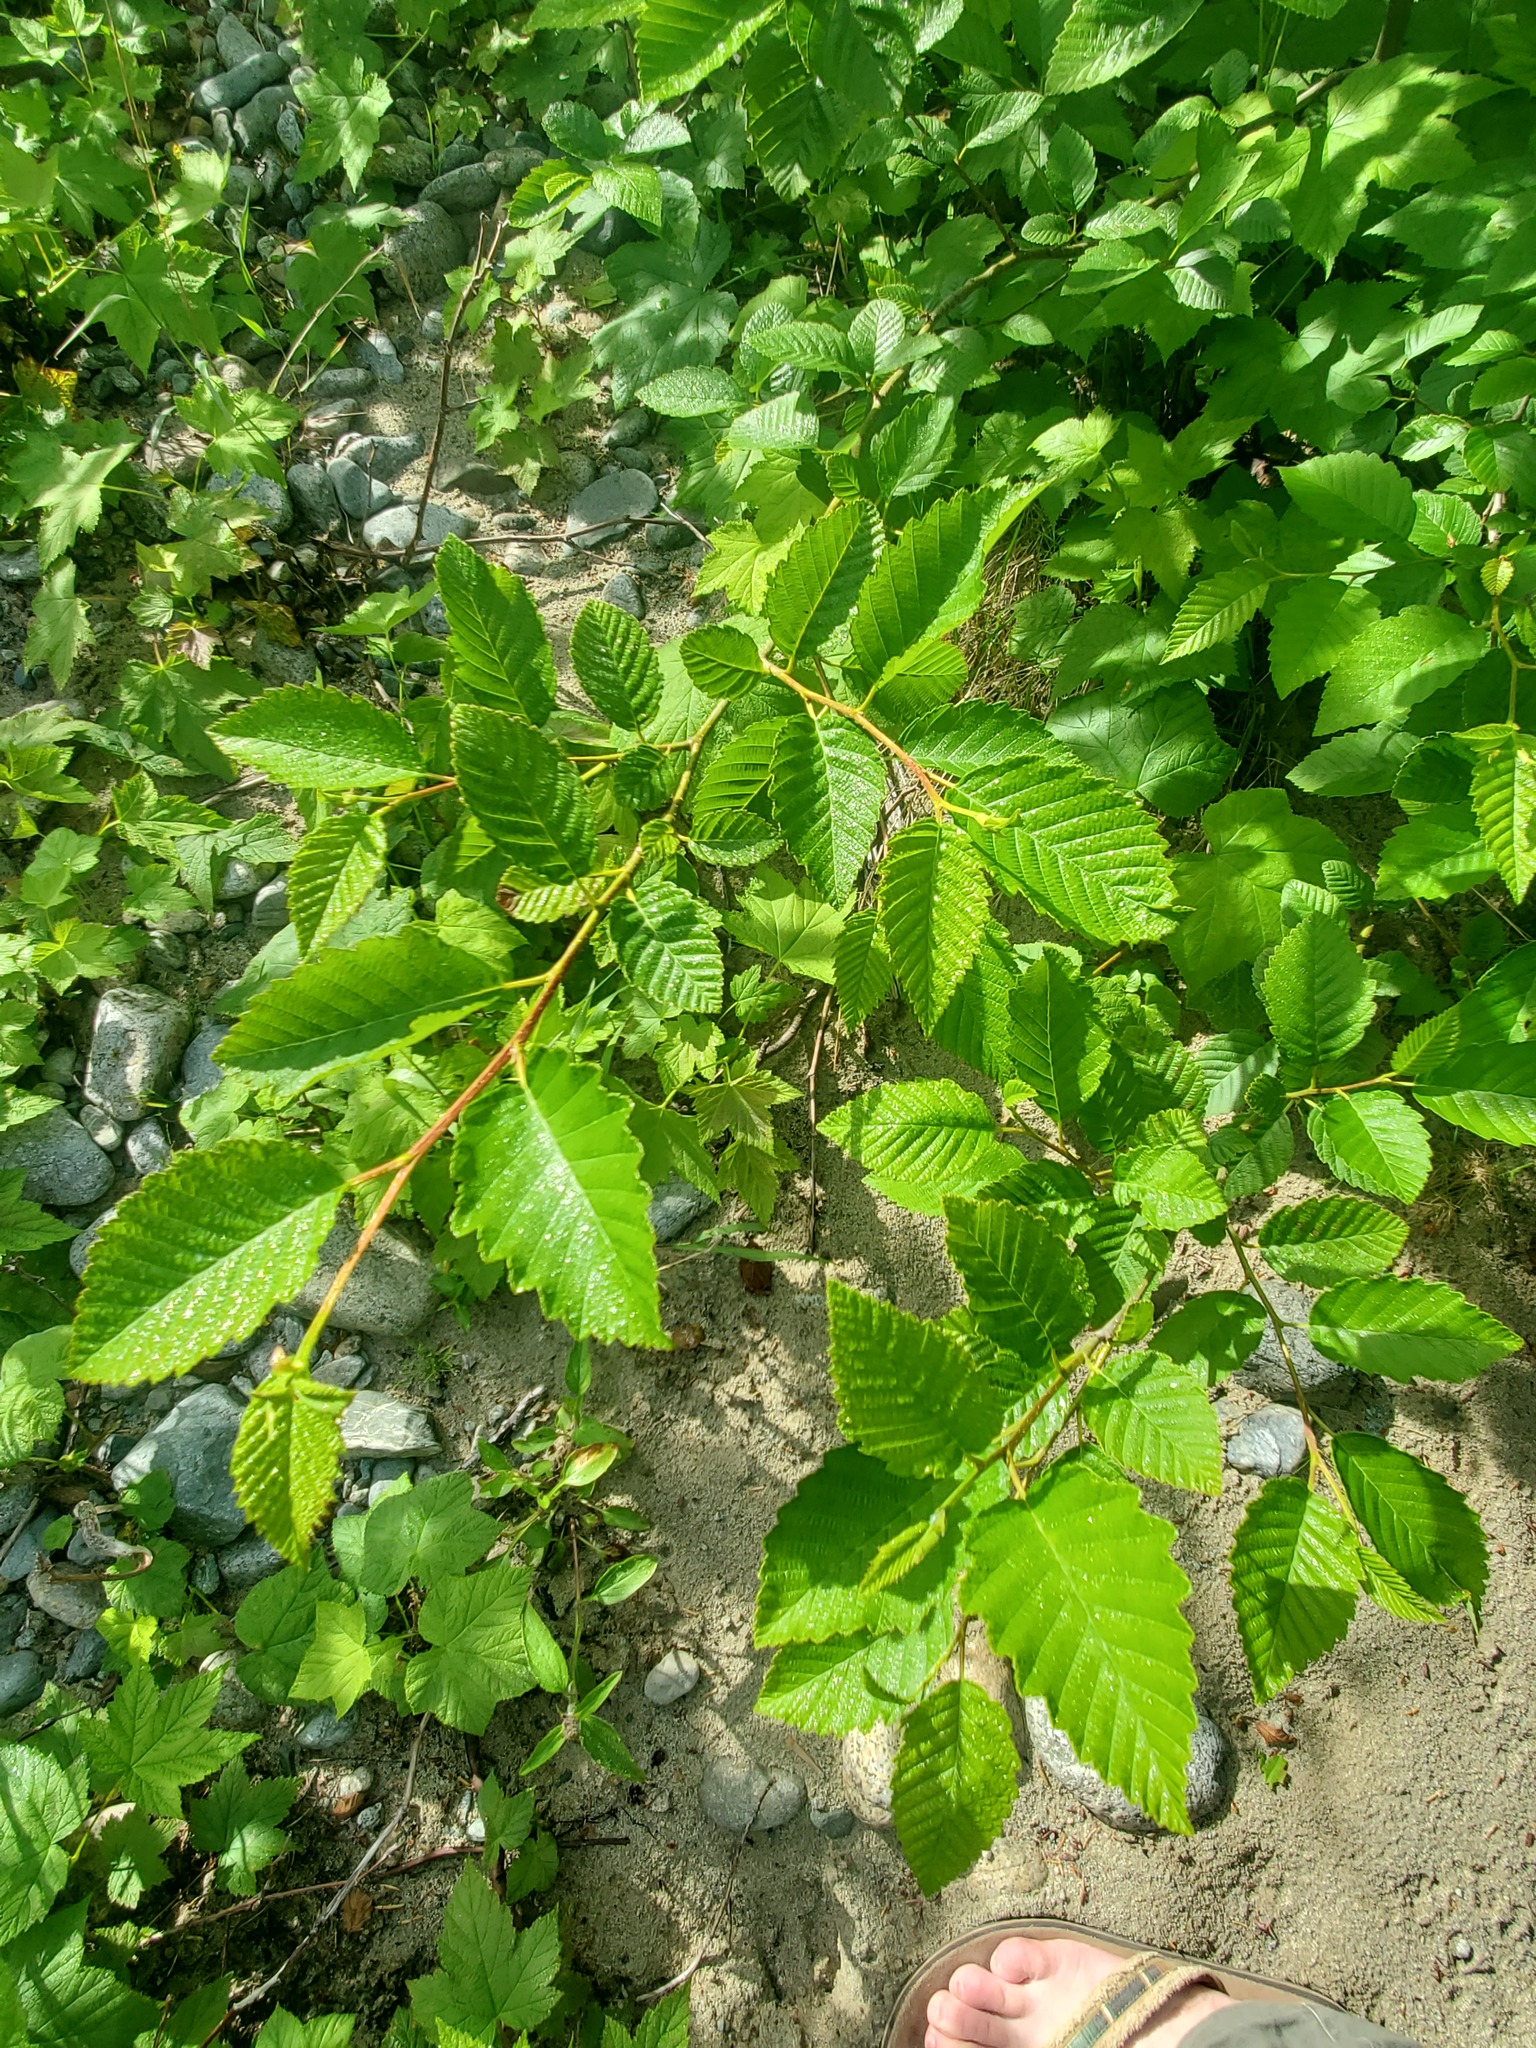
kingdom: Plantae
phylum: Tracheophyta
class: Magnoliopsida
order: Fagales
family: Betulaceae
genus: Alnus
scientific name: Alnus rubra
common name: Red alder
